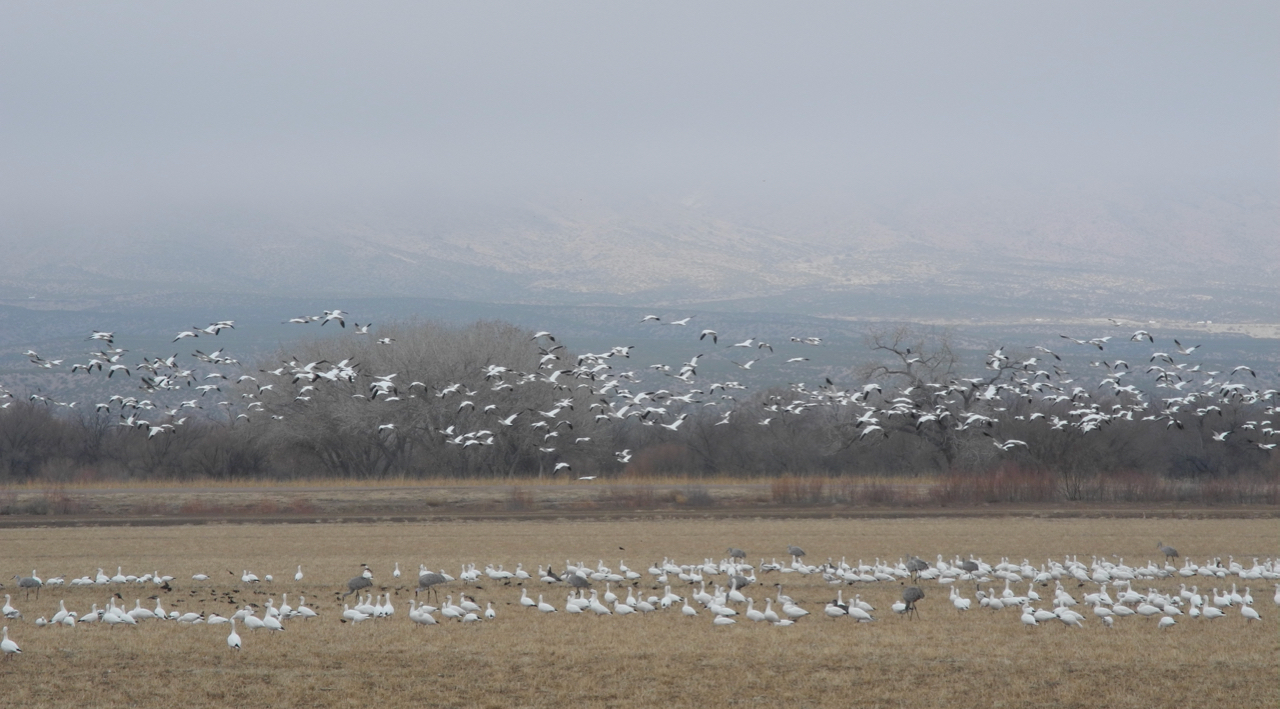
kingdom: Animalia
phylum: Chordata
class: Aves
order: Anseriformes
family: Anatidae
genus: Anser
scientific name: Anser caerulescens
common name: Snow goose
